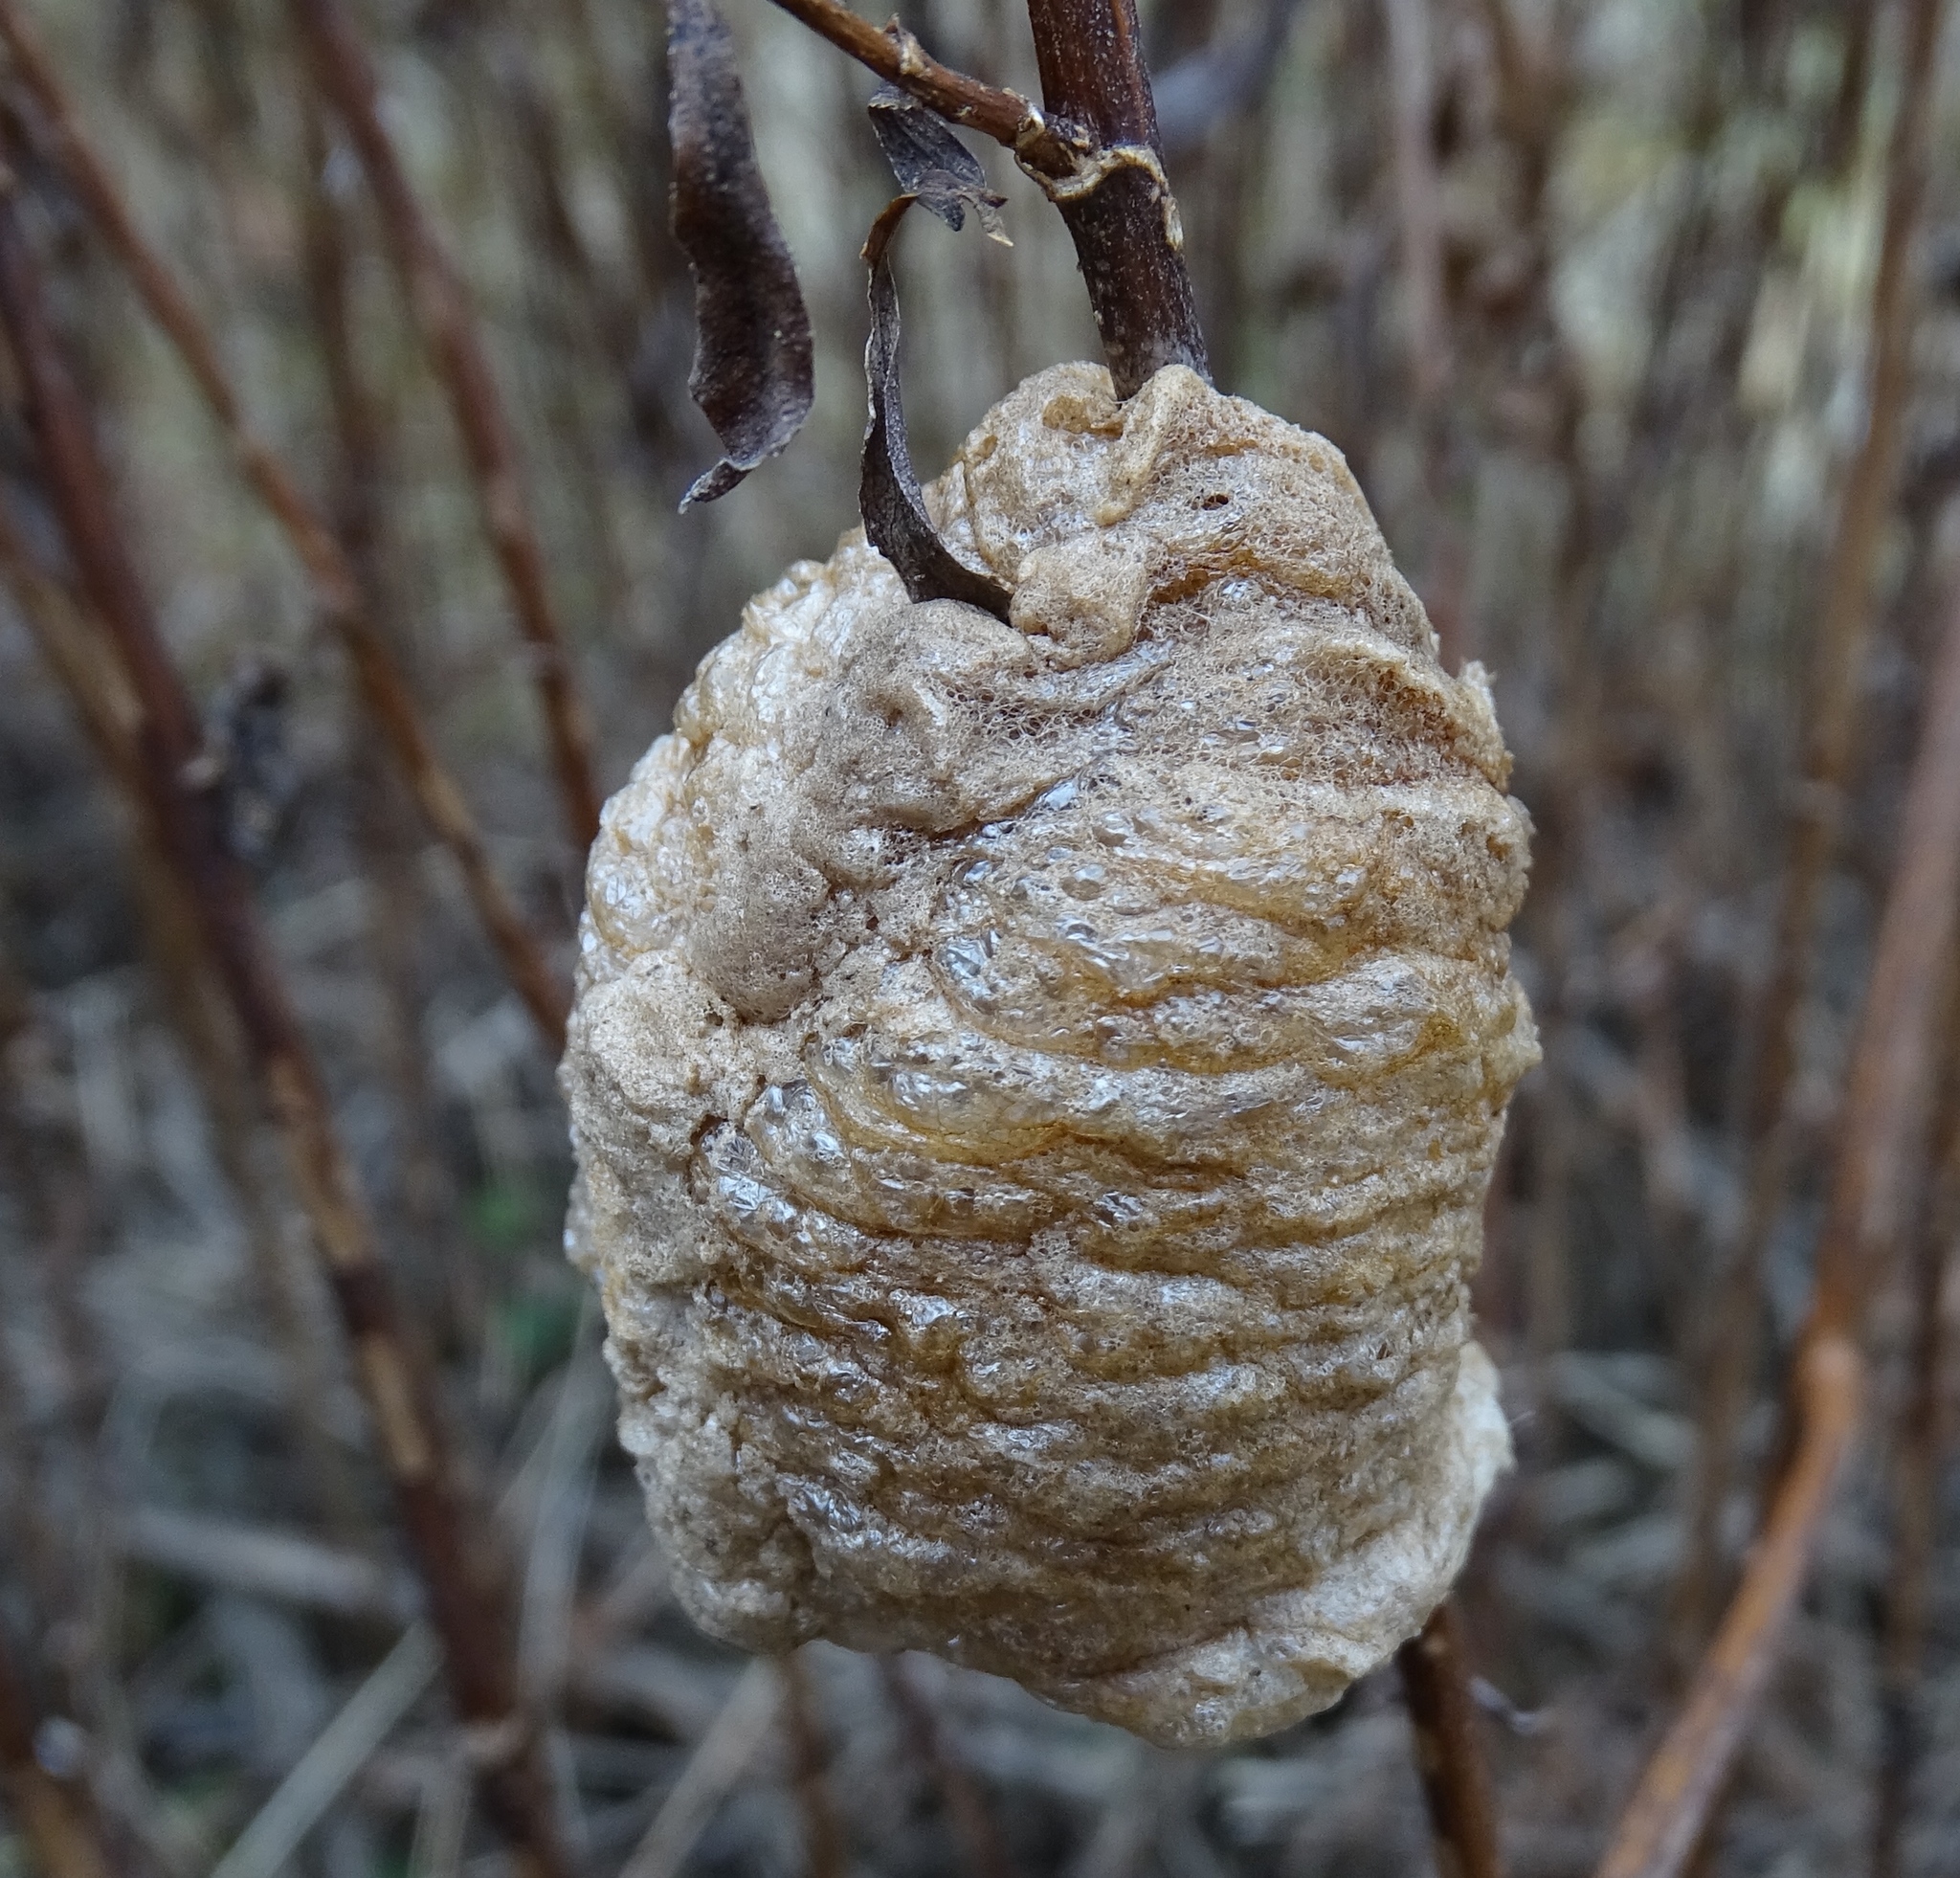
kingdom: Animalia
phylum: Arthropoda
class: Insecta
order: Mantodea
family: Mantidae
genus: Tenodera
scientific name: Tenodera sinensis
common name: Chinese mantis
